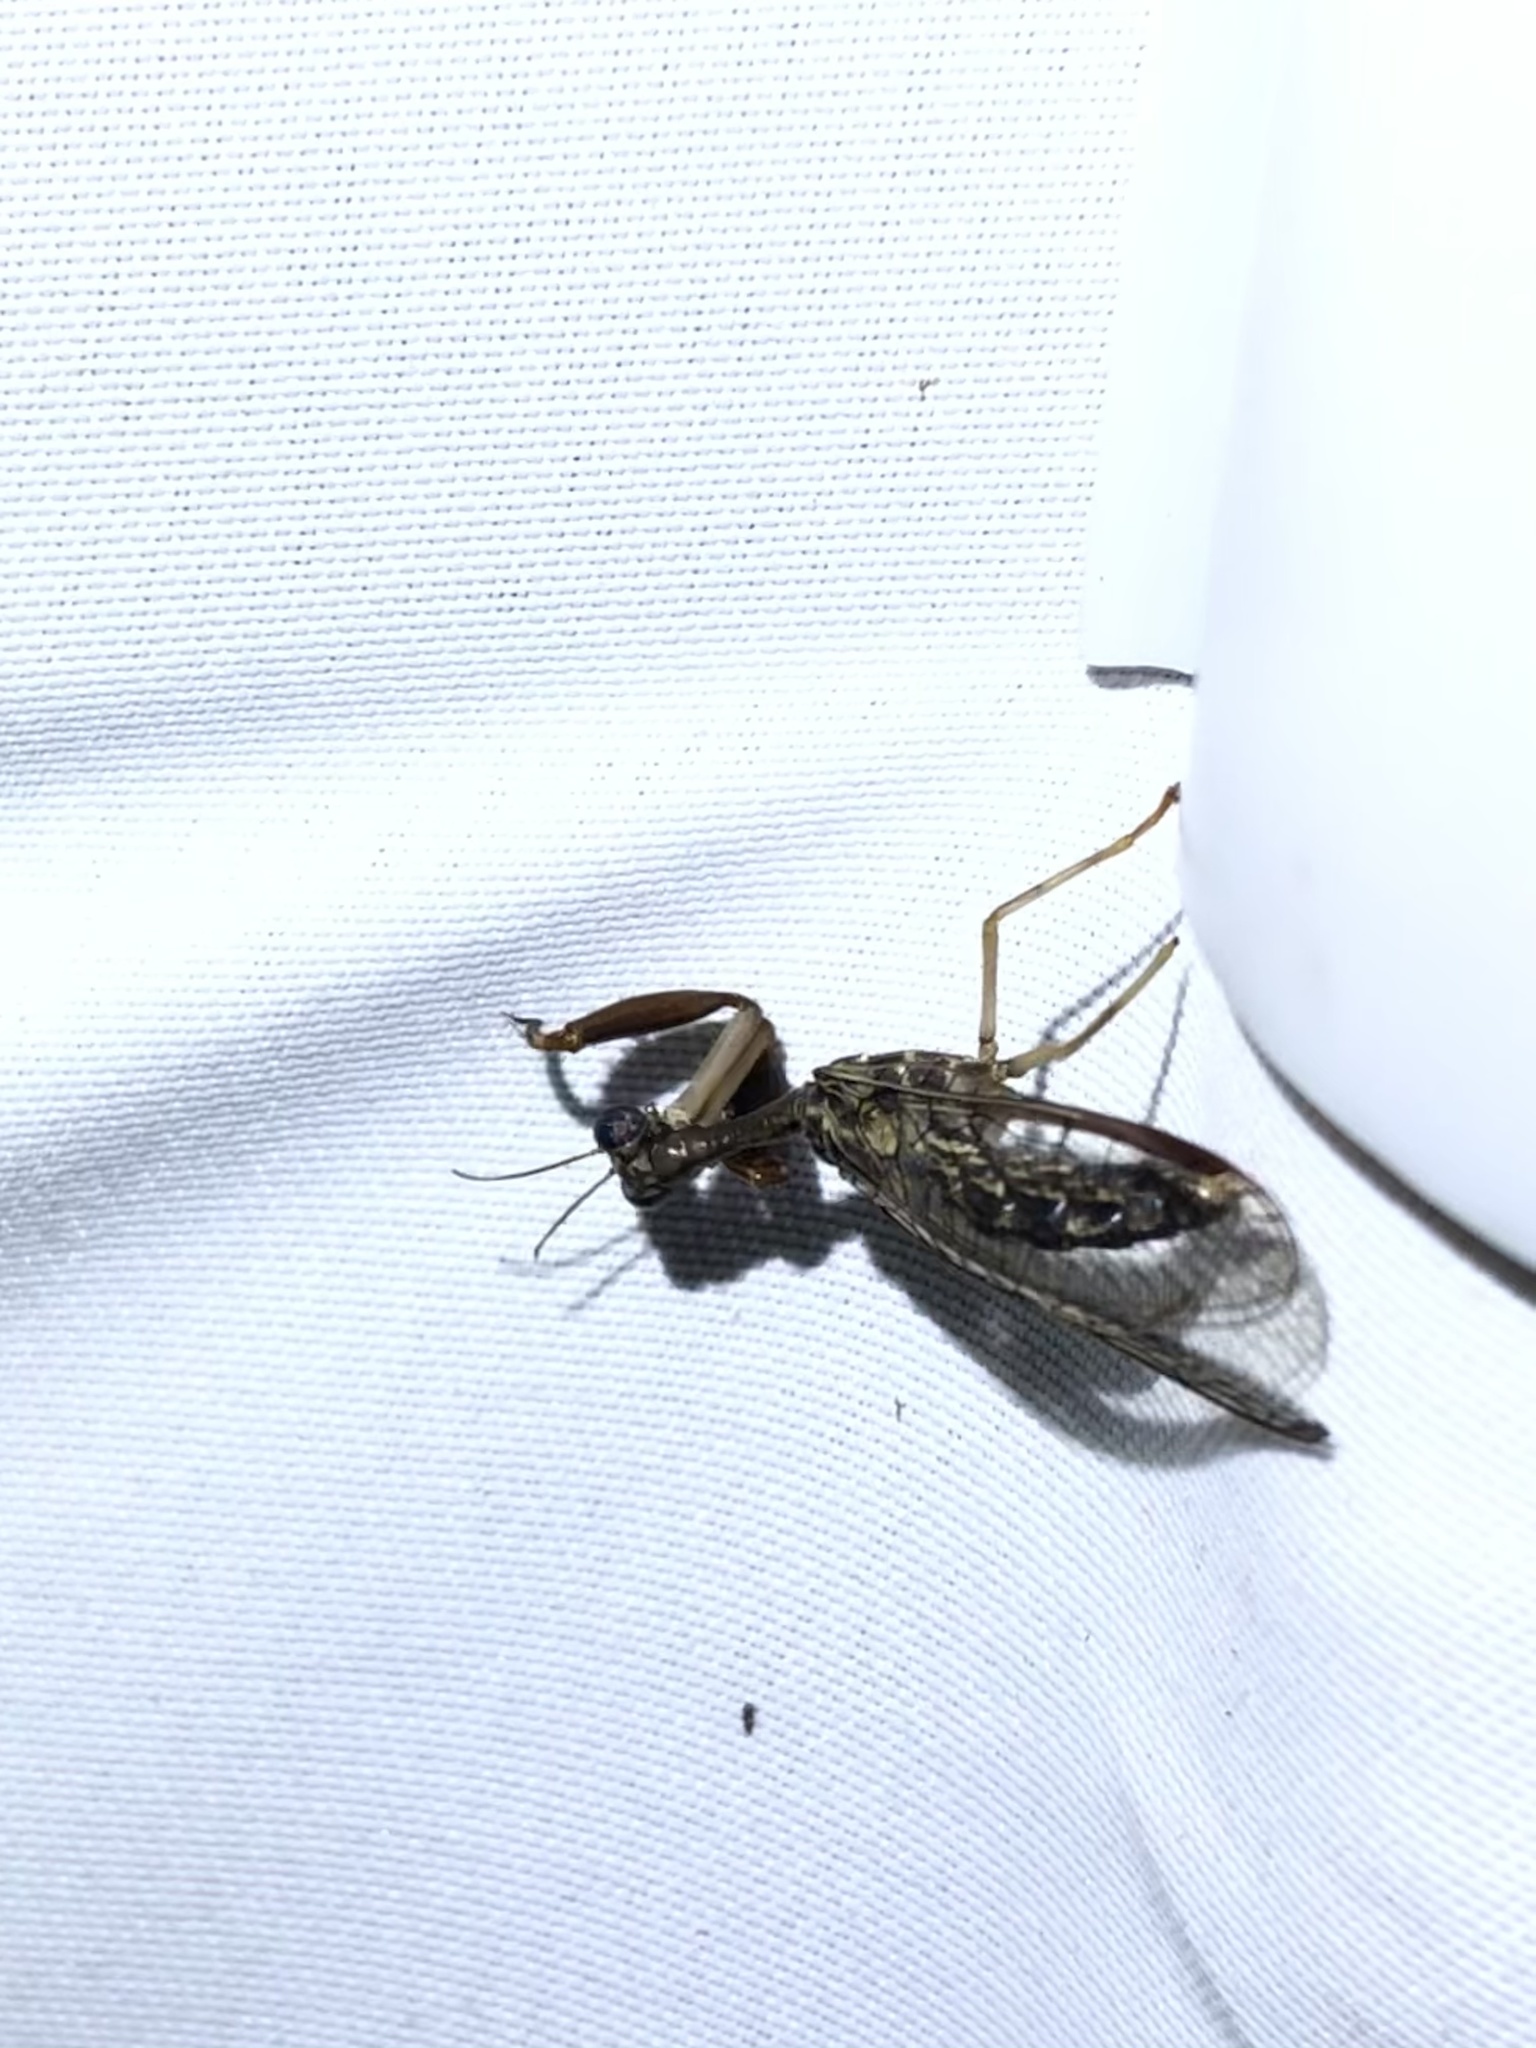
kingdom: Animalia
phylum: Arthropoda
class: Insecta
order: Neuroptera
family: Mantispidae
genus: Dicromantispa
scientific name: Dicromantispa sayi
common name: Say's mantidfly
